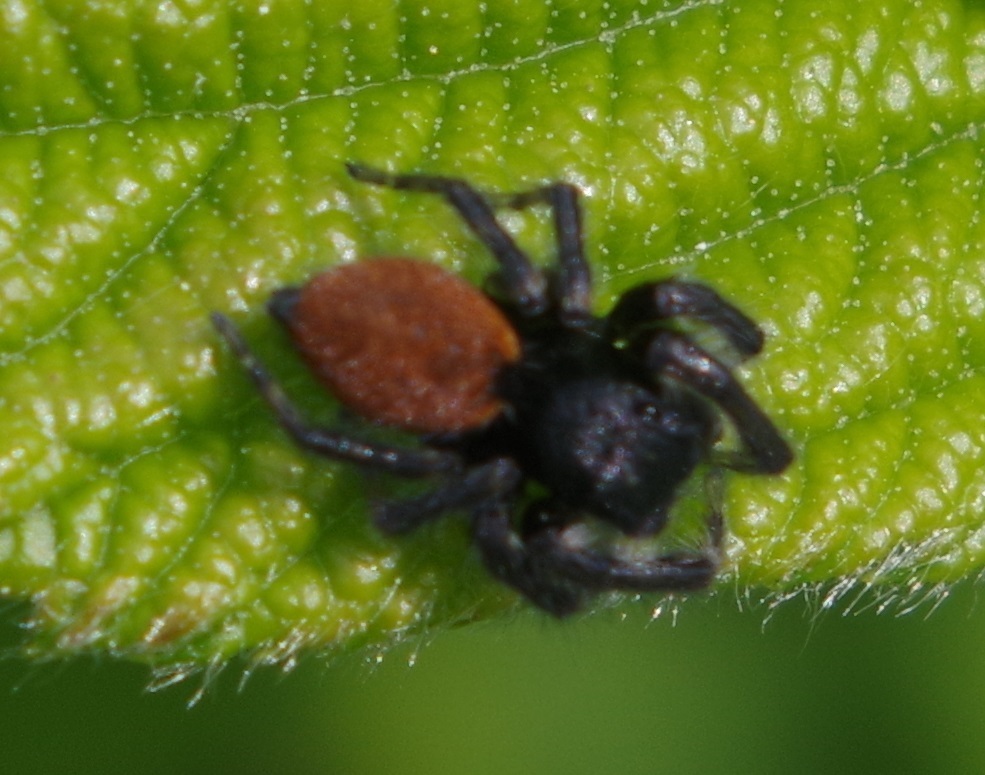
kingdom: Animalia
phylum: Arthropoda
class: Arachnida
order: Araneae
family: Salticidae
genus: Carrhotus
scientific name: Carrhotus xanthogramma
